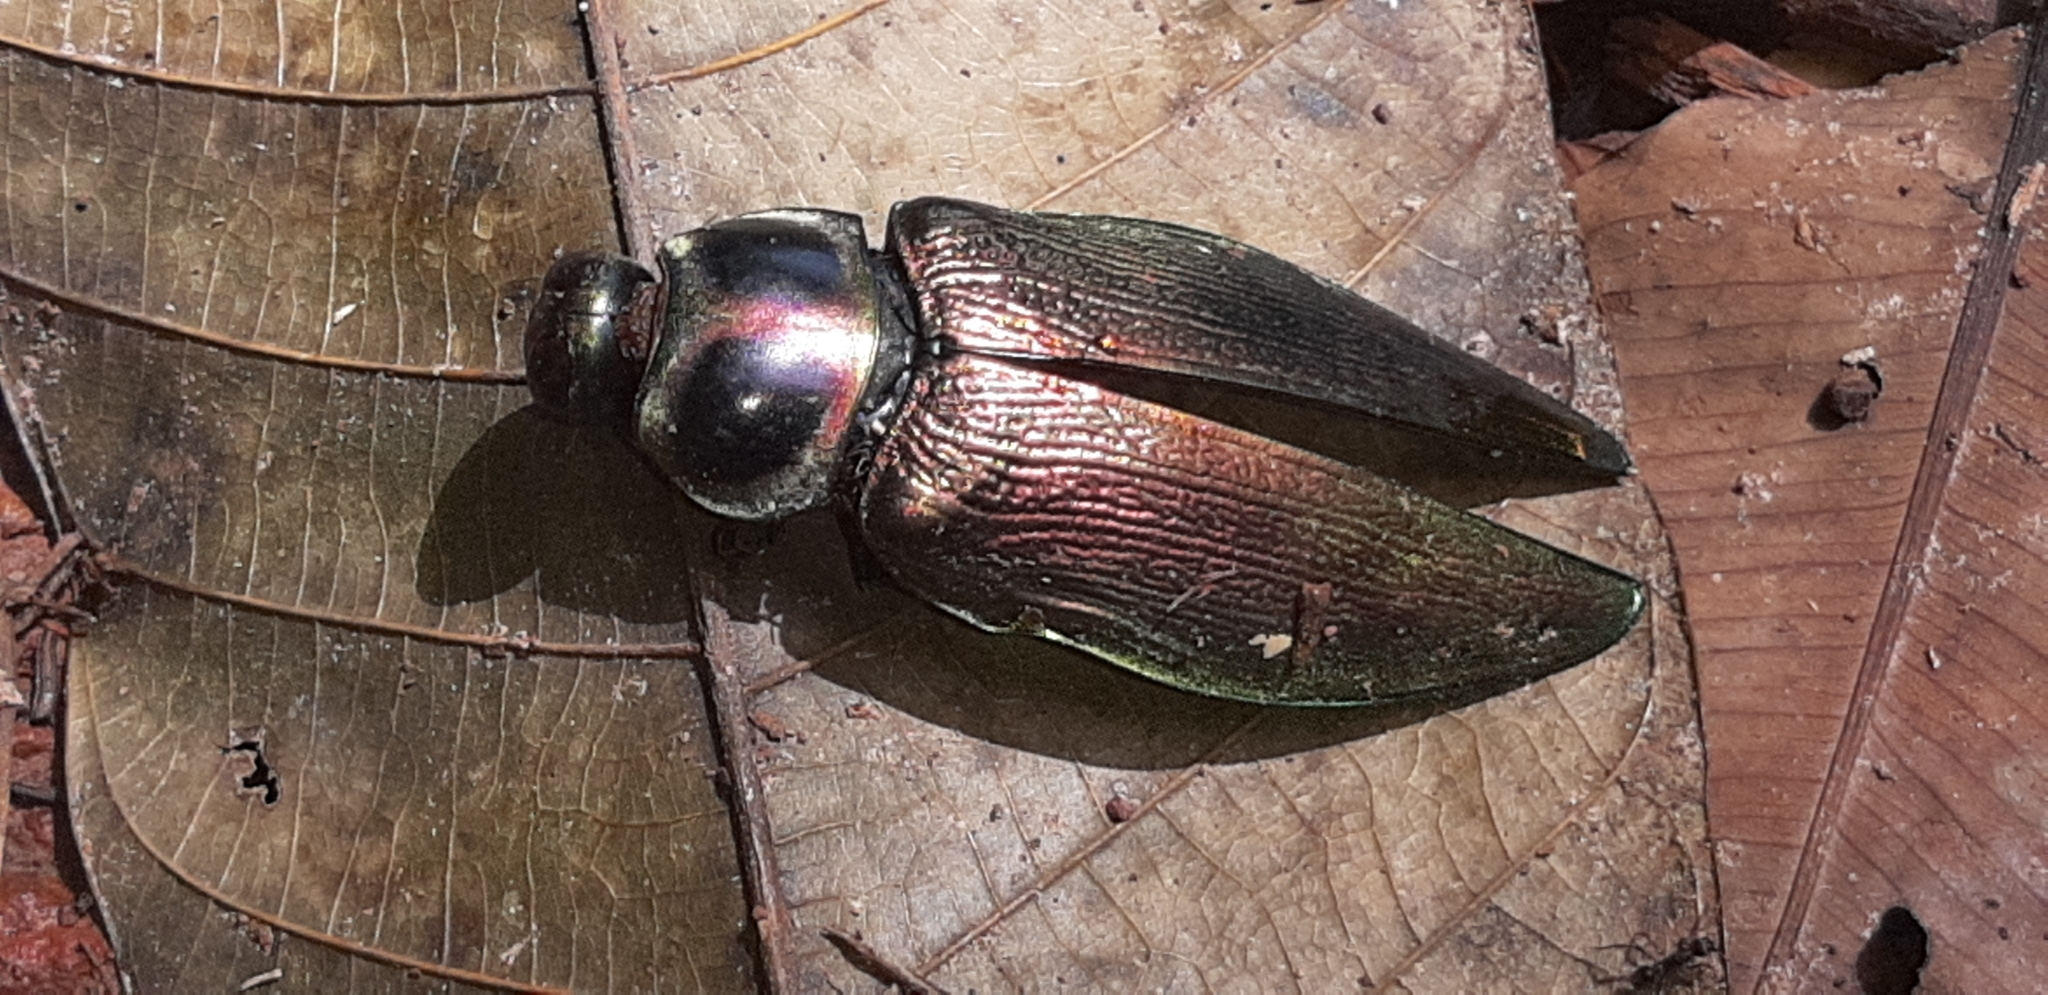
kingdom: Animalia
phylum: Arthropoda
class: Insecta
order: Coleoptera
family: Buprestidae
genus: Euchroma
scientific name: Euchroma giganteum
